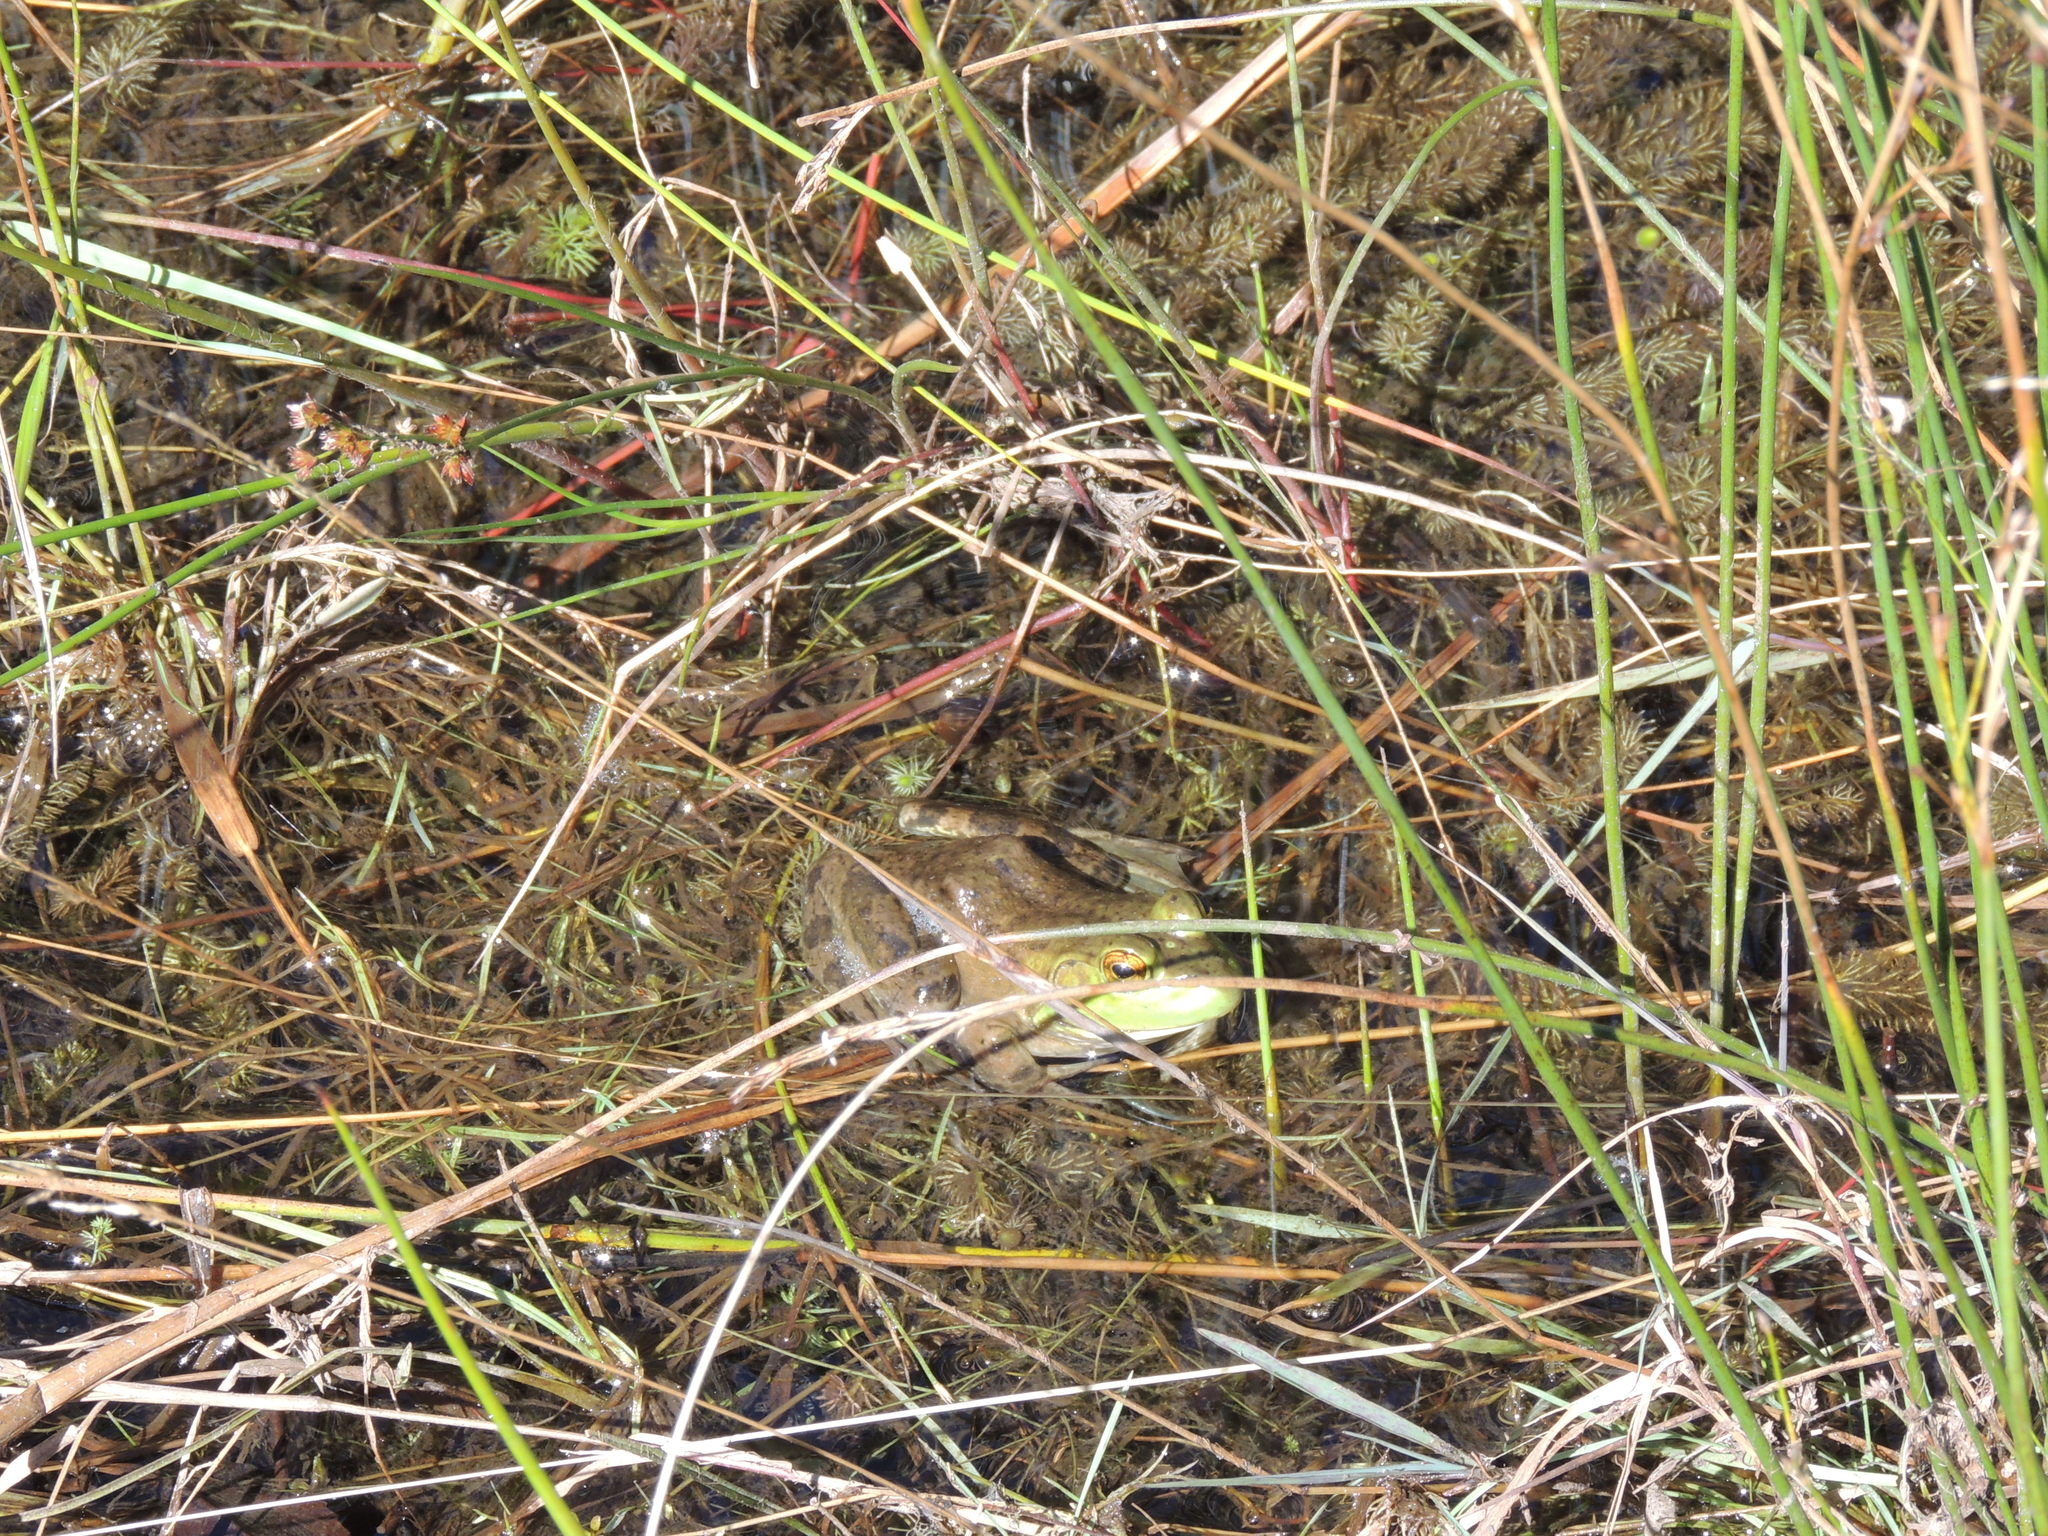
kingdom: Animalia
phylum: Chordata
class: Amphibia
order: Anura
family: Ranidae
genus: Lithobates
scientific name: Lithobates catesbeianus
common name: American bullfrog
